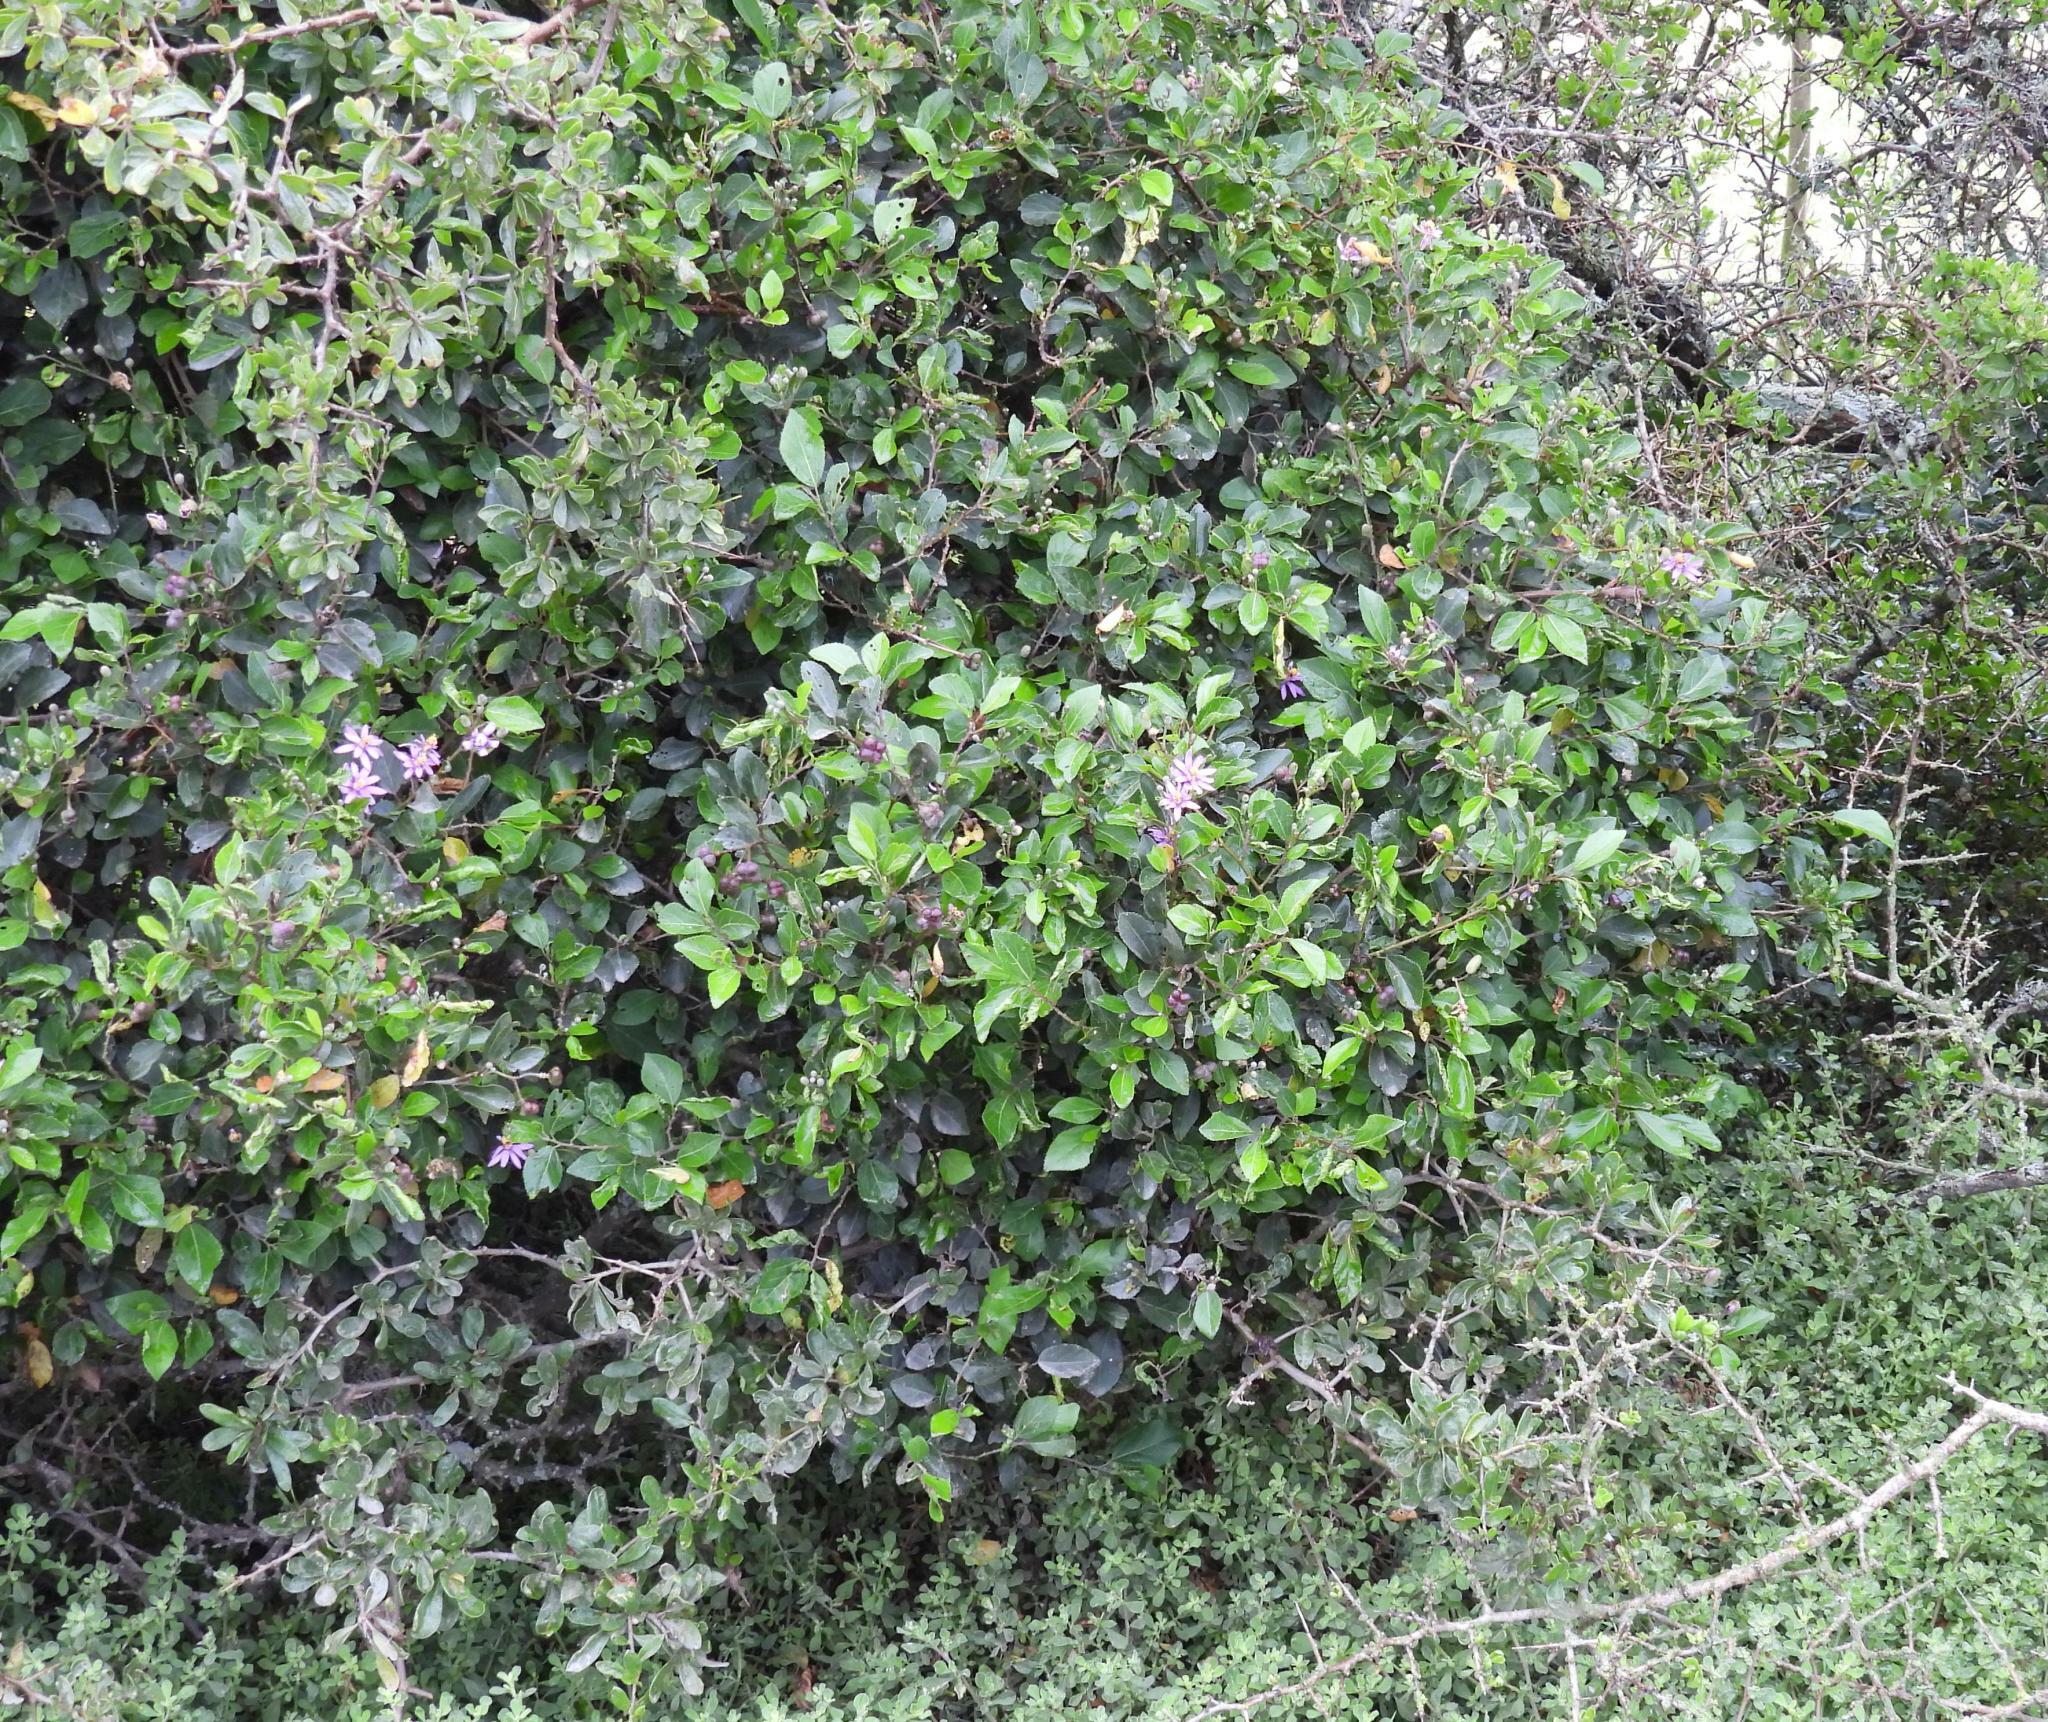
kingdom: Plantae
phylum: Tracheophyta
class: Magnoliopsida
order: Malvales
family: Malvaceae
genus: Grewia
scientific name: Grewia occidentalis
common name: Crossberry
